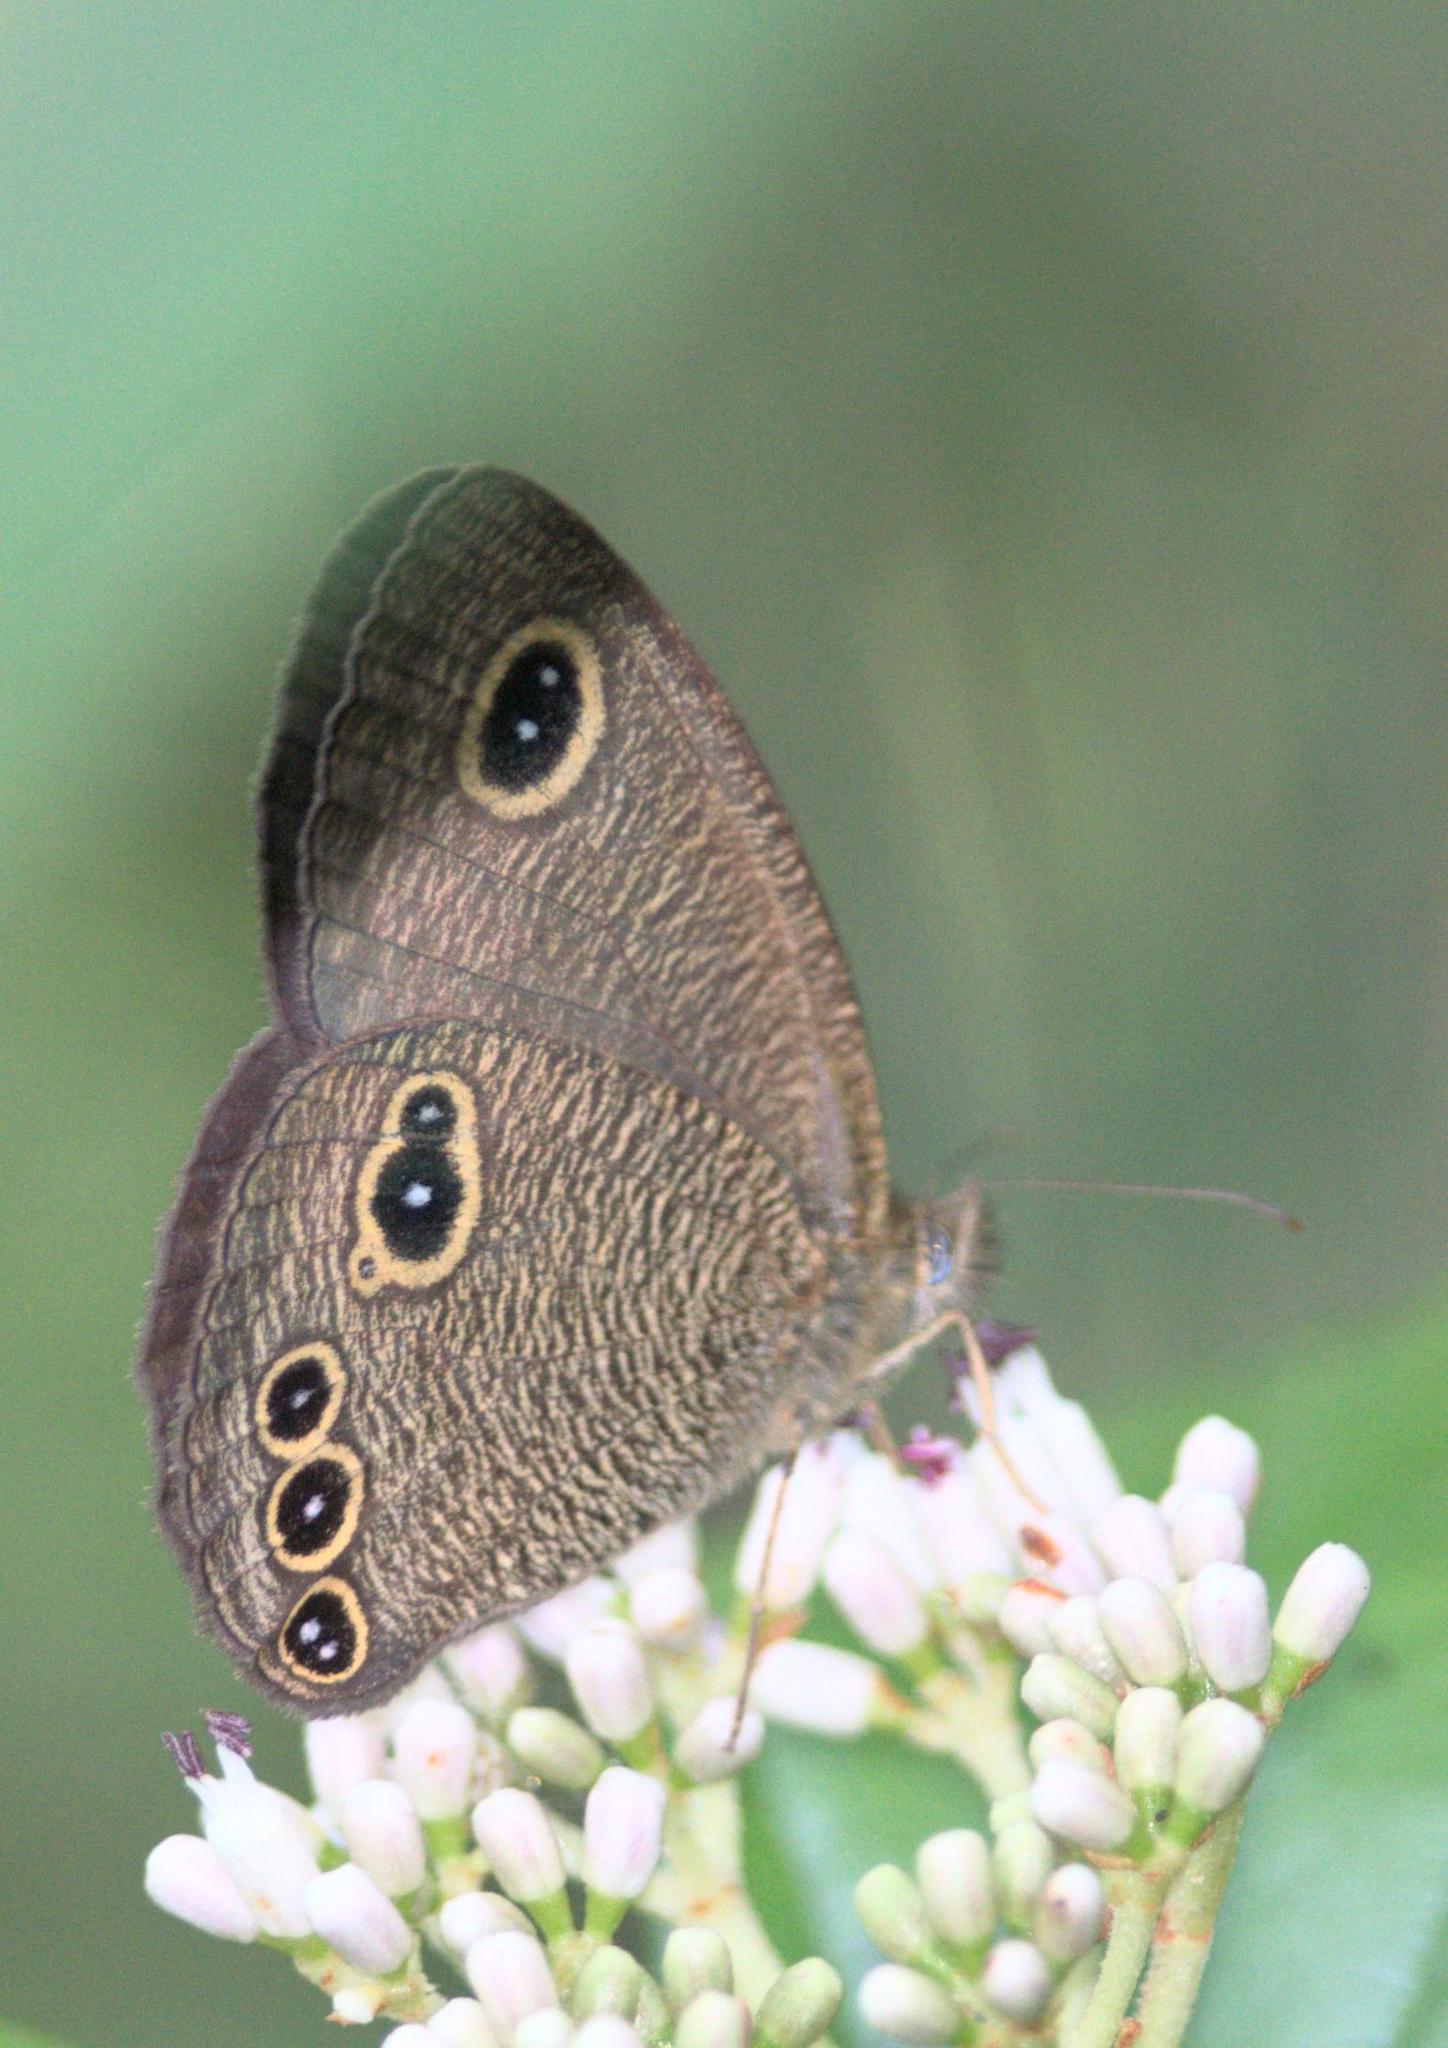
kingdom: Animalia
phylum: Arthropoda
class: Insecta
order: Lepidoptera
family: Nymphalidae
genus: Ypthima
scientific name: Ypthima nikaea
